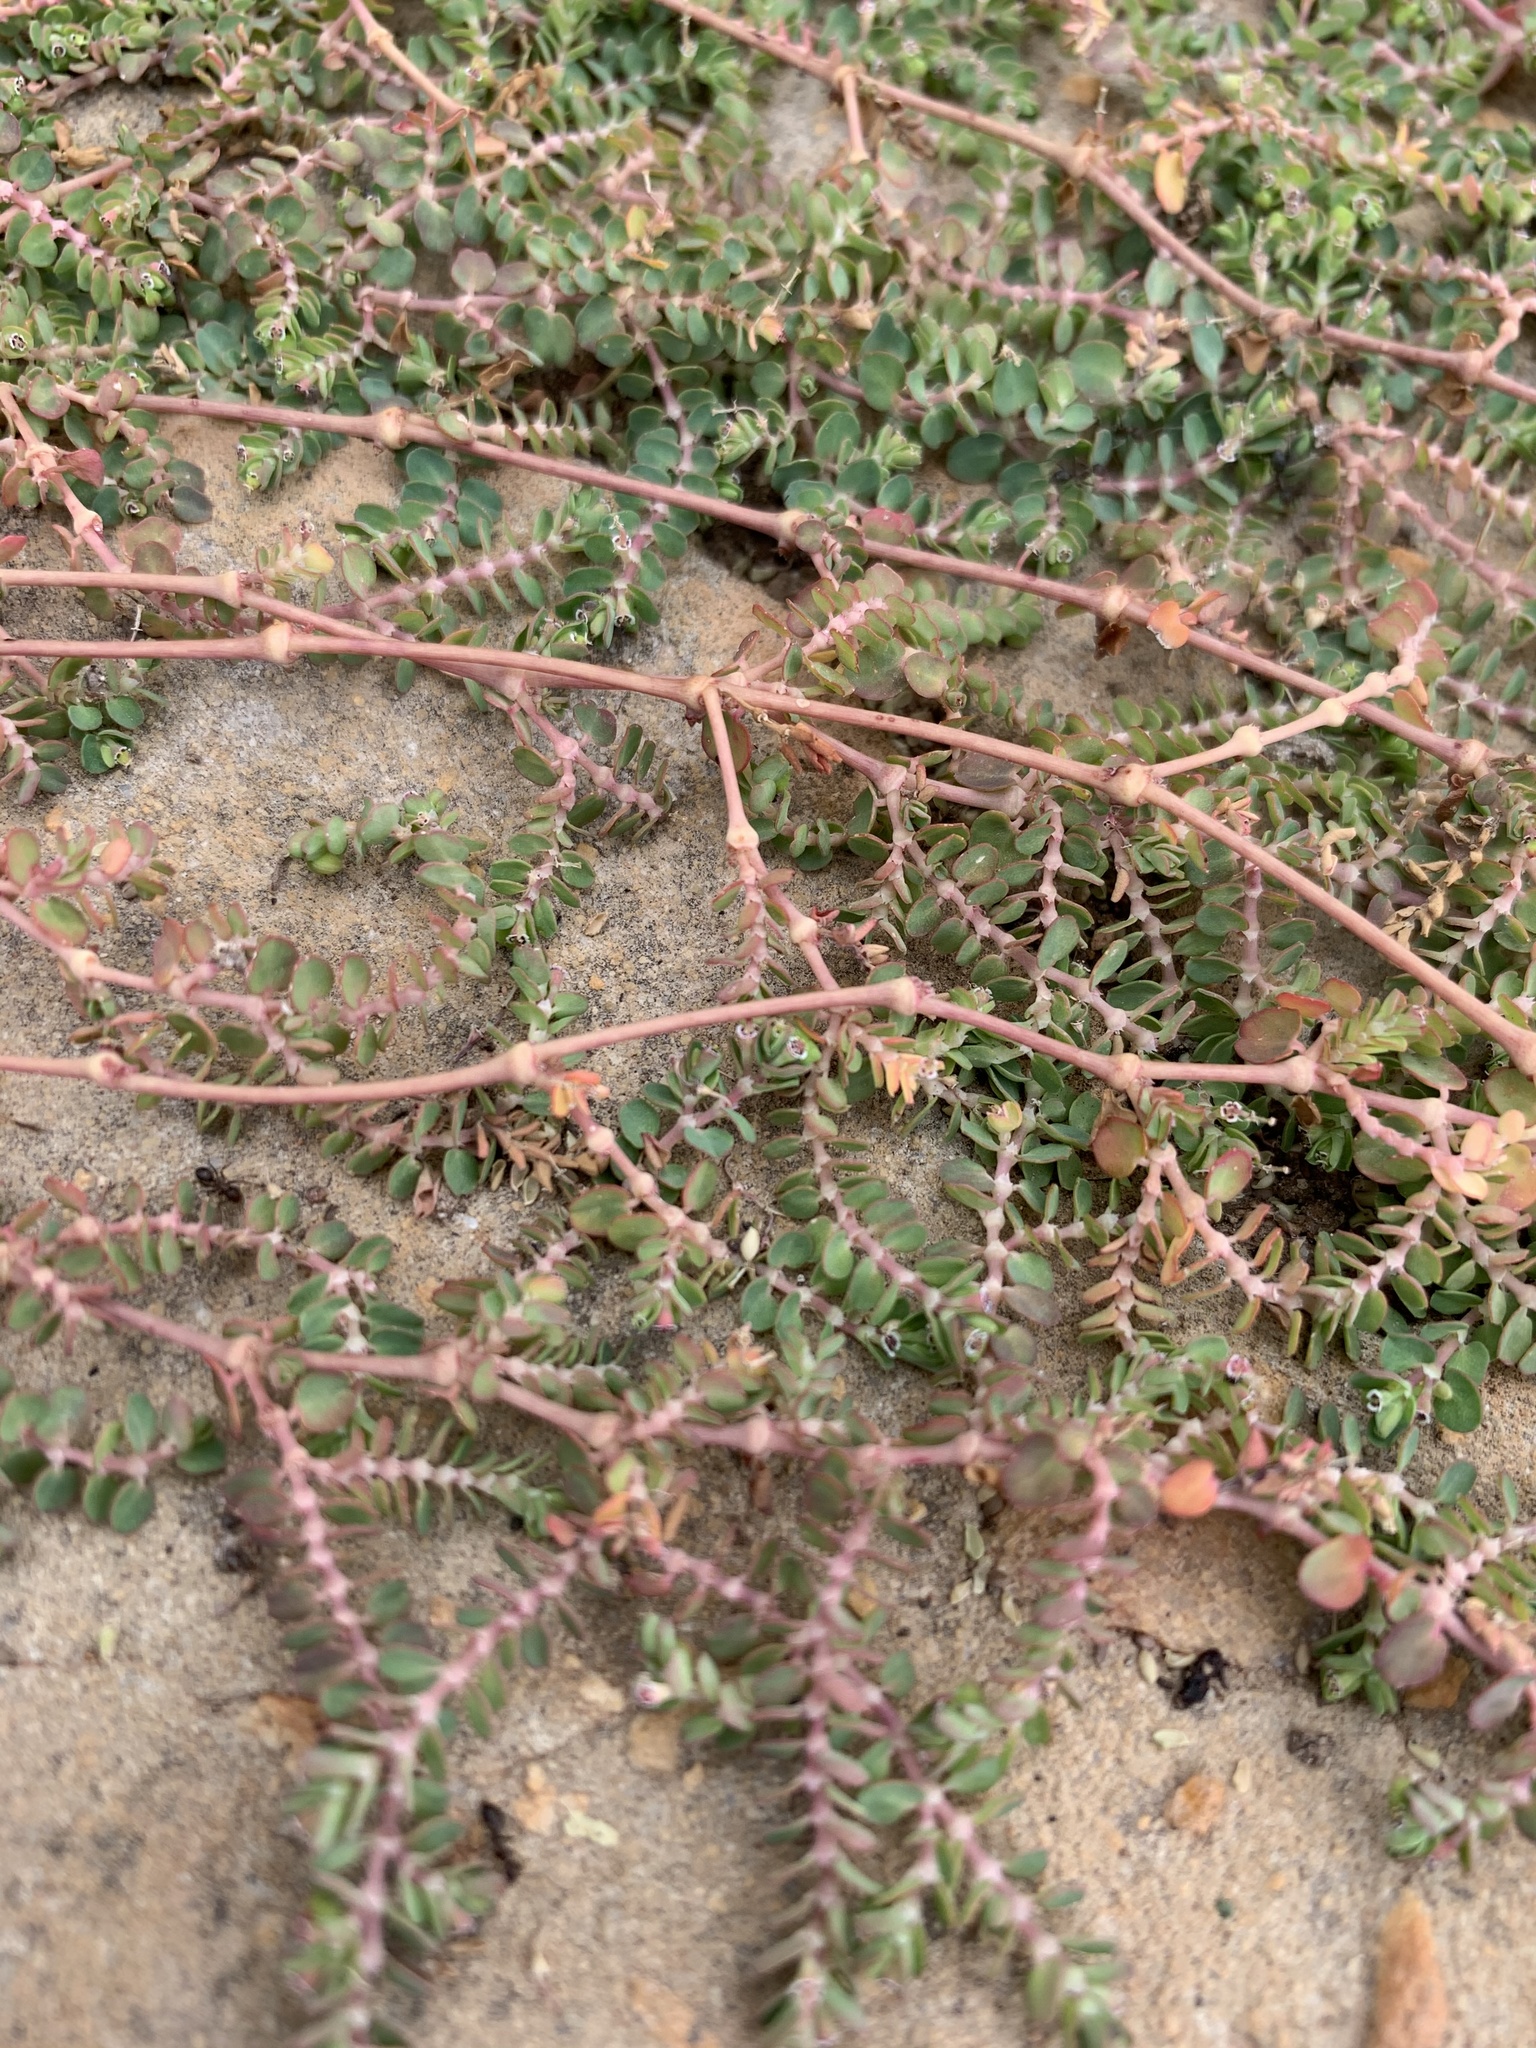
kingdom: Plantae
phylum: Tracheophyta
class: Magnoliopsida
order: Malpighiales
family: Euphorbiaceae
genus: Euphorbia
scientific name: Euphorbia serpens
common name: Matted sandmat
